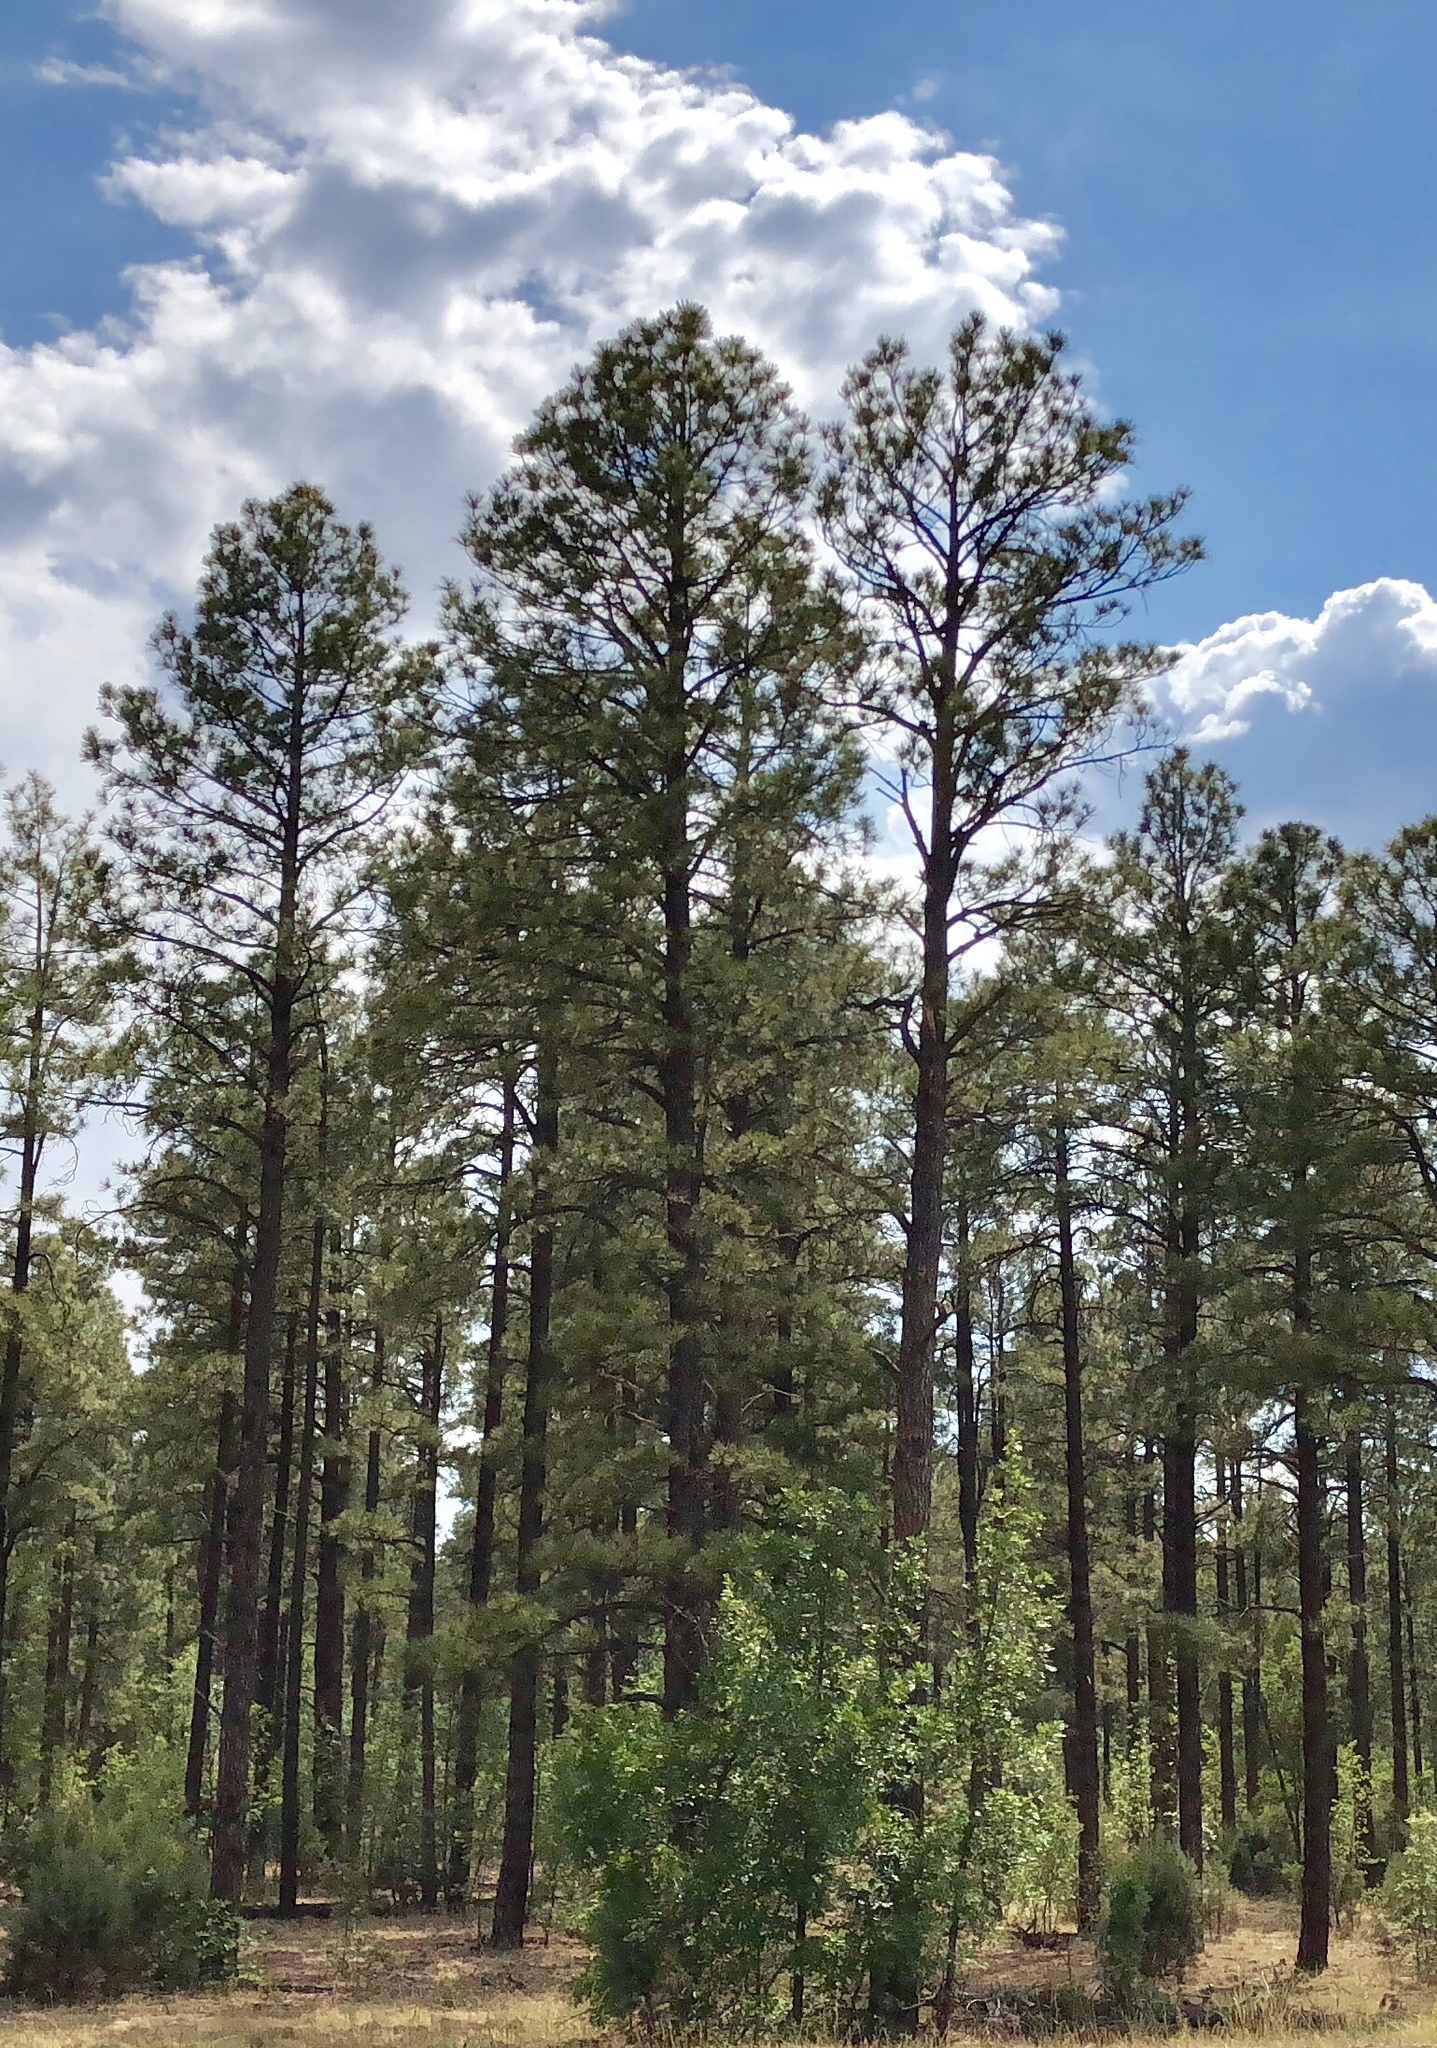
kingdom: Plantae
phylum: Tracheophyta
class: Pinopsida
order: Pinales
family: Pinaceae
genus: Pinus
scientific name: Pinus ponderosa
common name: Western yellow-pine
